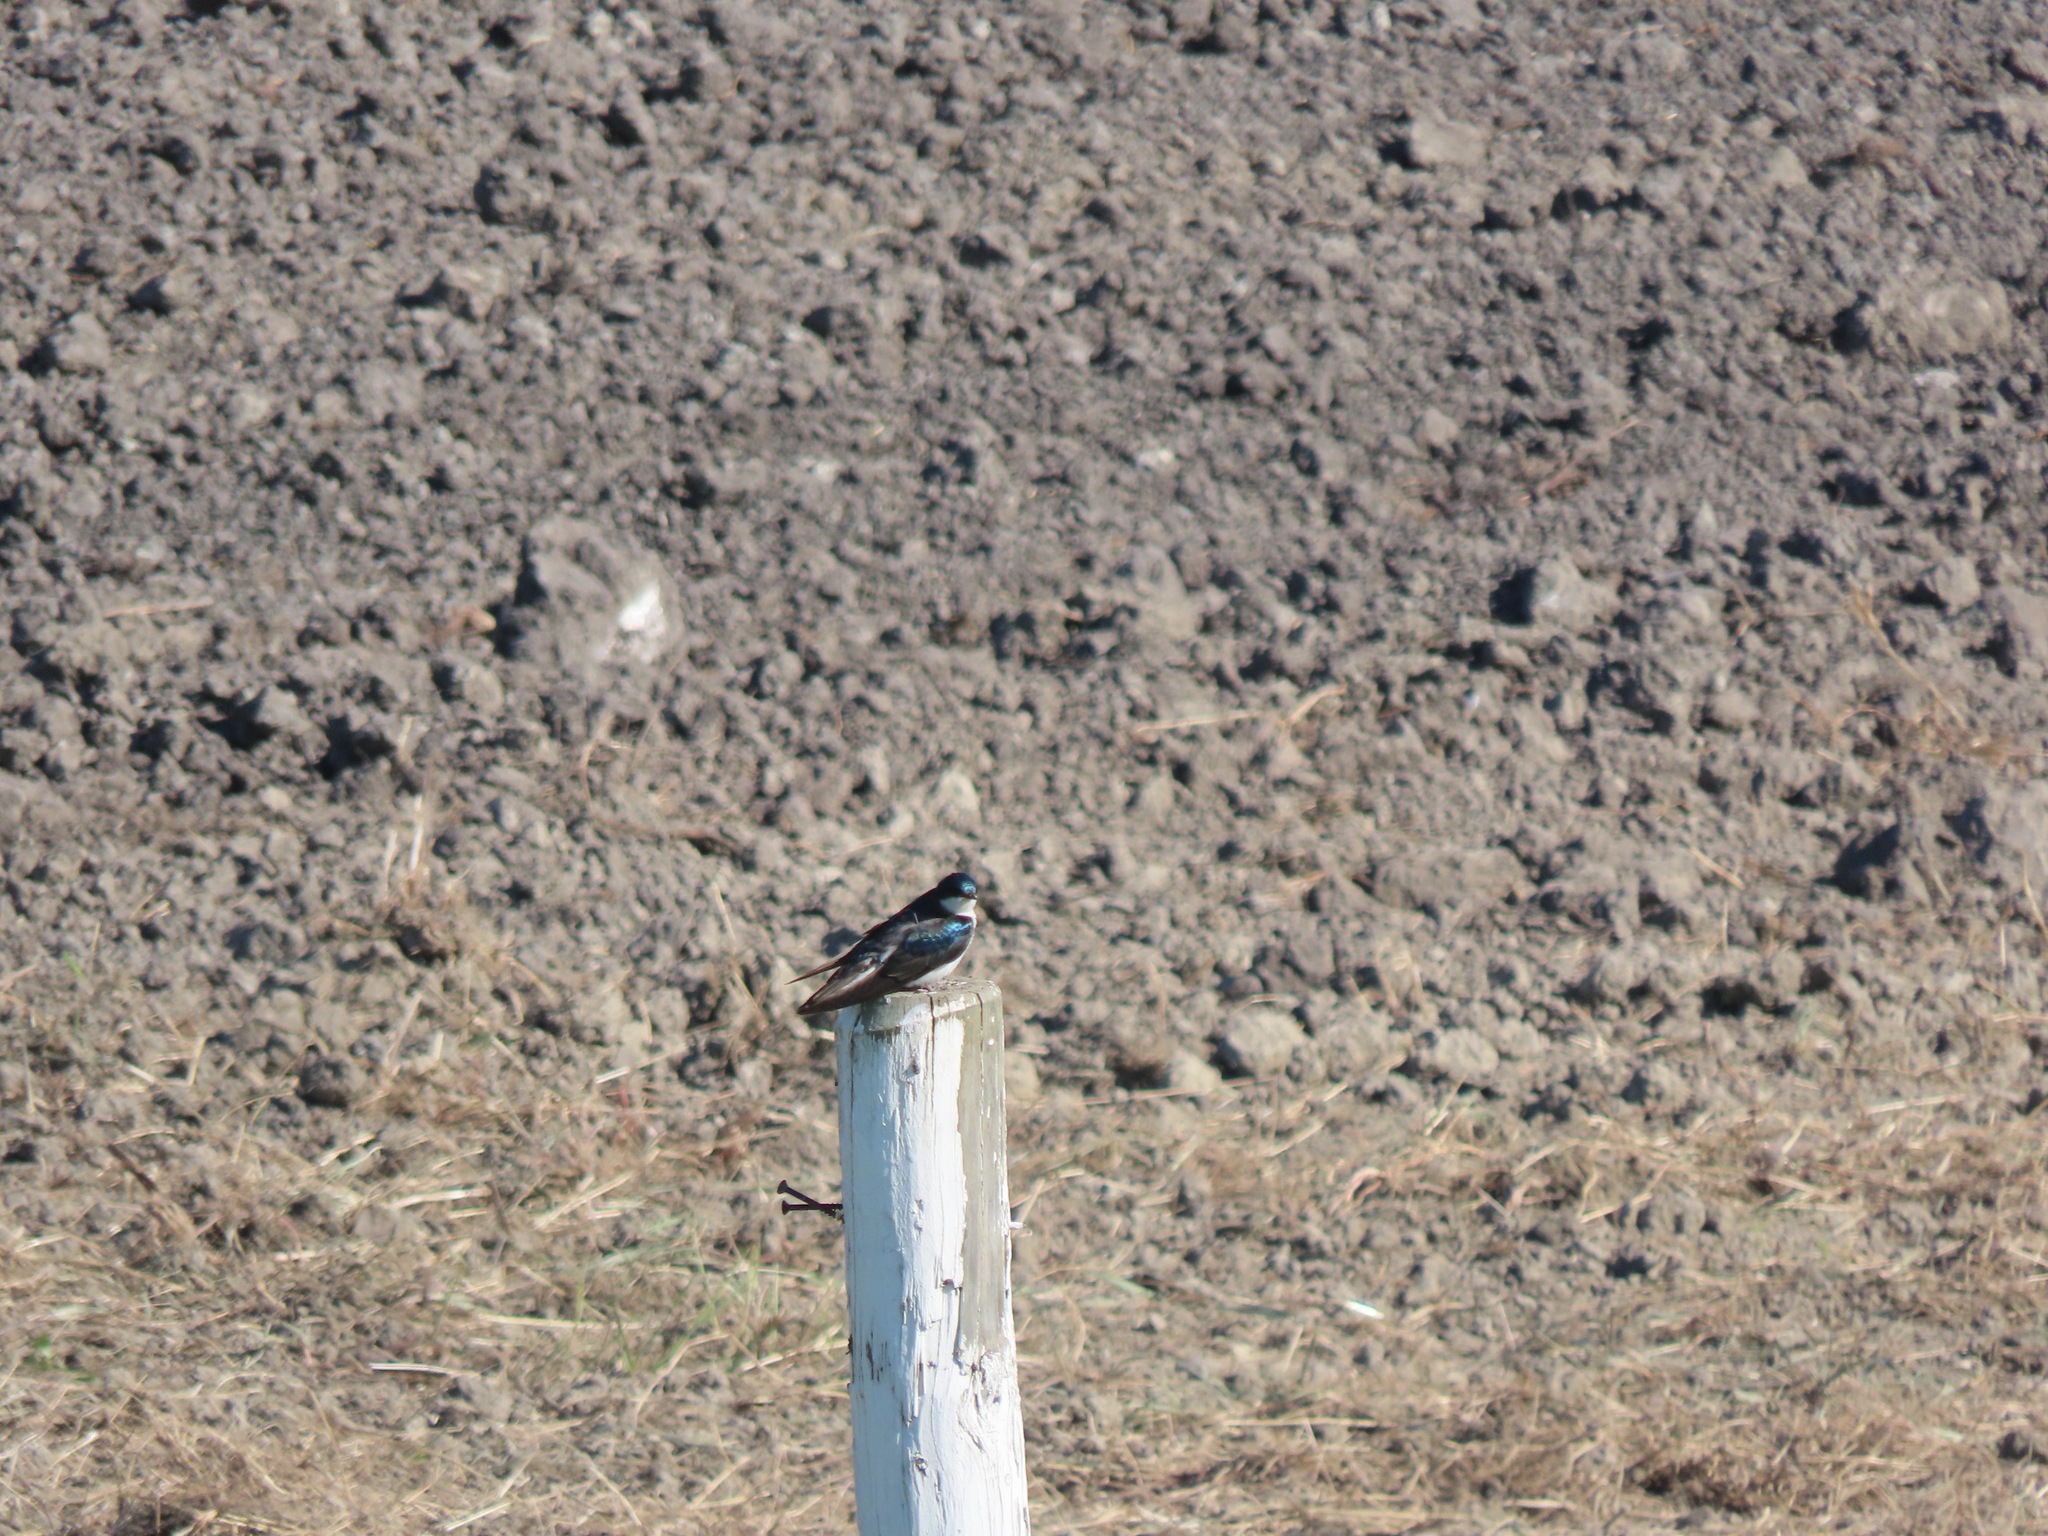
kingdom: Animalia
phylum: Chordata
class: Aves
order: Passeriformes
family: Hirundinidae
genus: Tachycineta
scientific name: Tachycineta bicolor
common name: Tree swallow
